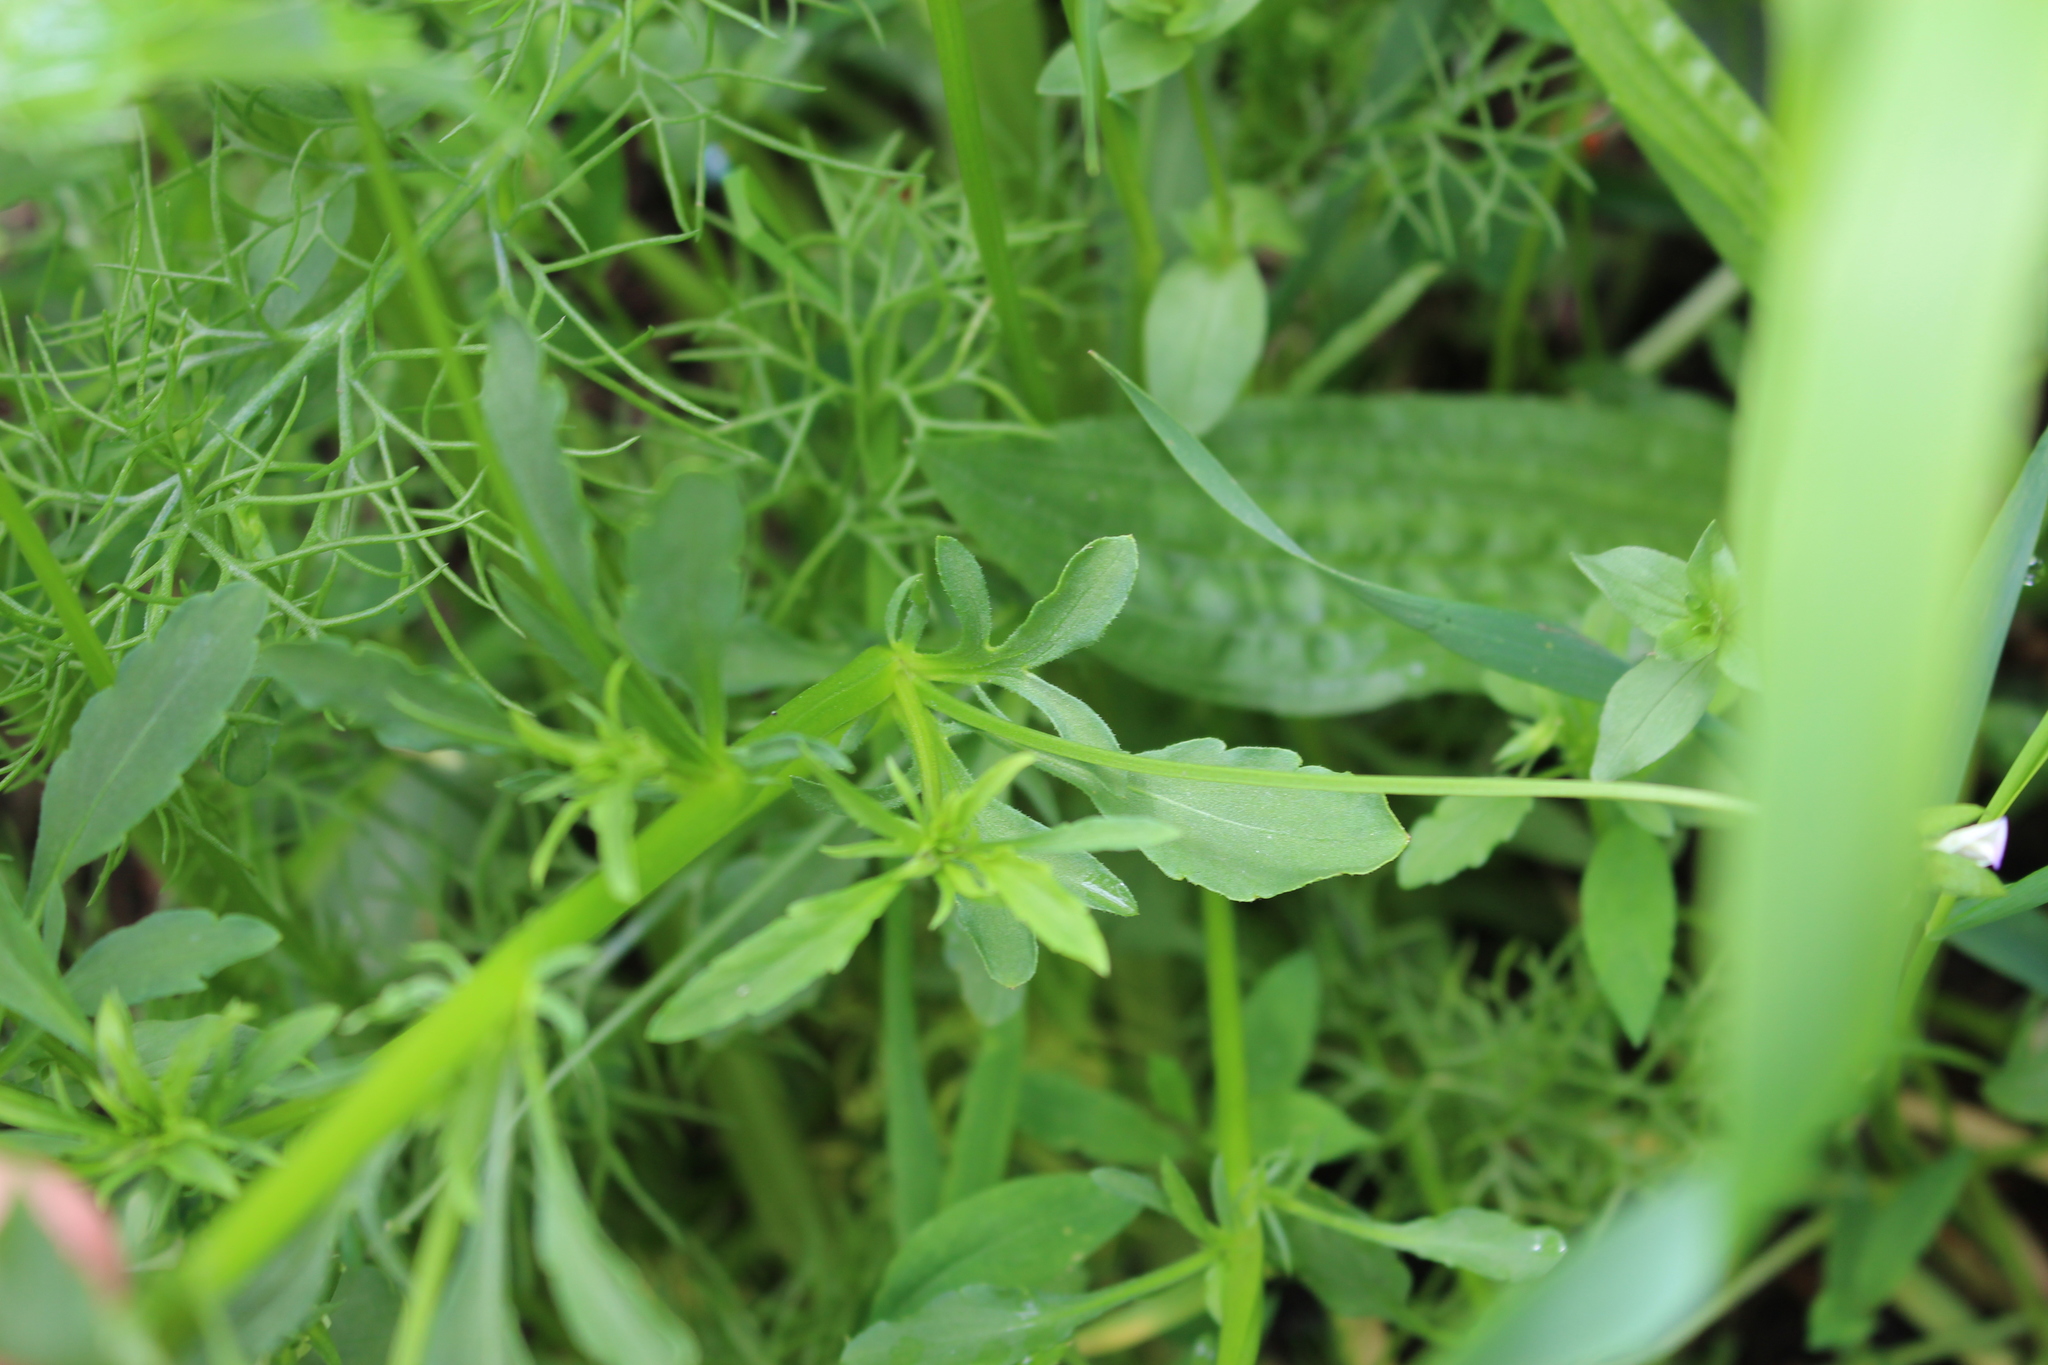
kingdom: Plantae
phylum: Tracheophyta
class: Magnoliopsida
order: Malpighiales
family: Violaceae
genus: Viola
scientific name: Viola arvensis
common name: Field pansy
